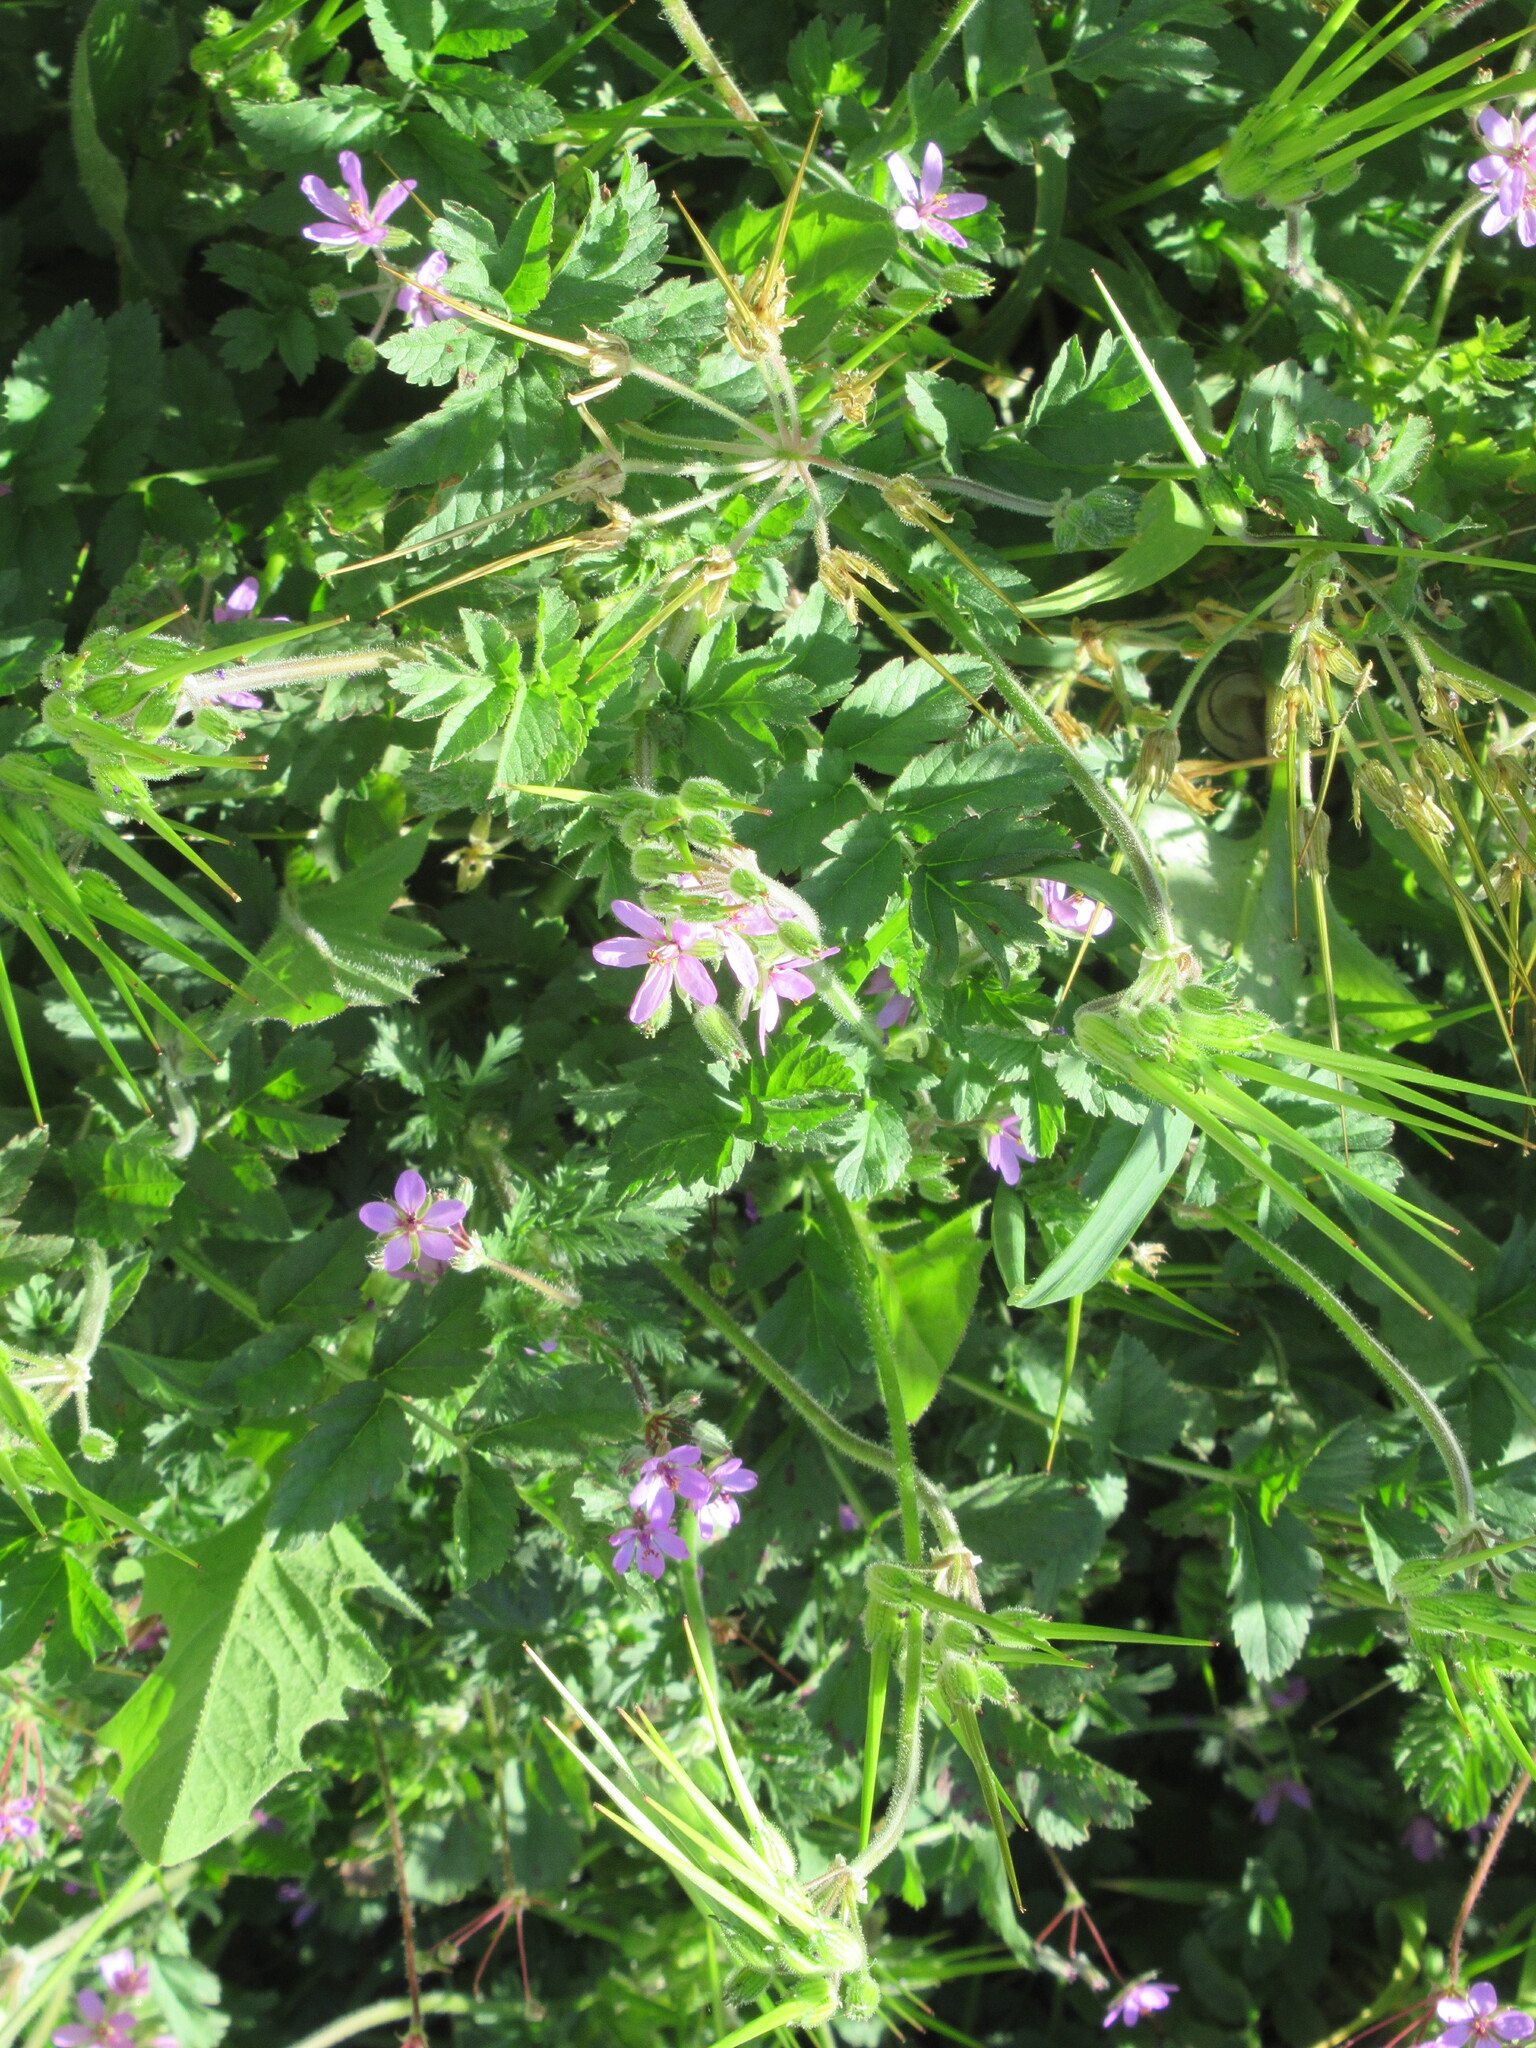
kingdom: Plantae
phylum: Tracheophyta
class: Magnoliopsida
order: Geraniales
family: Geraniaceae
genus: Erodium
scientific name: Erodium moschatum
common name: Musk stork's-bill
